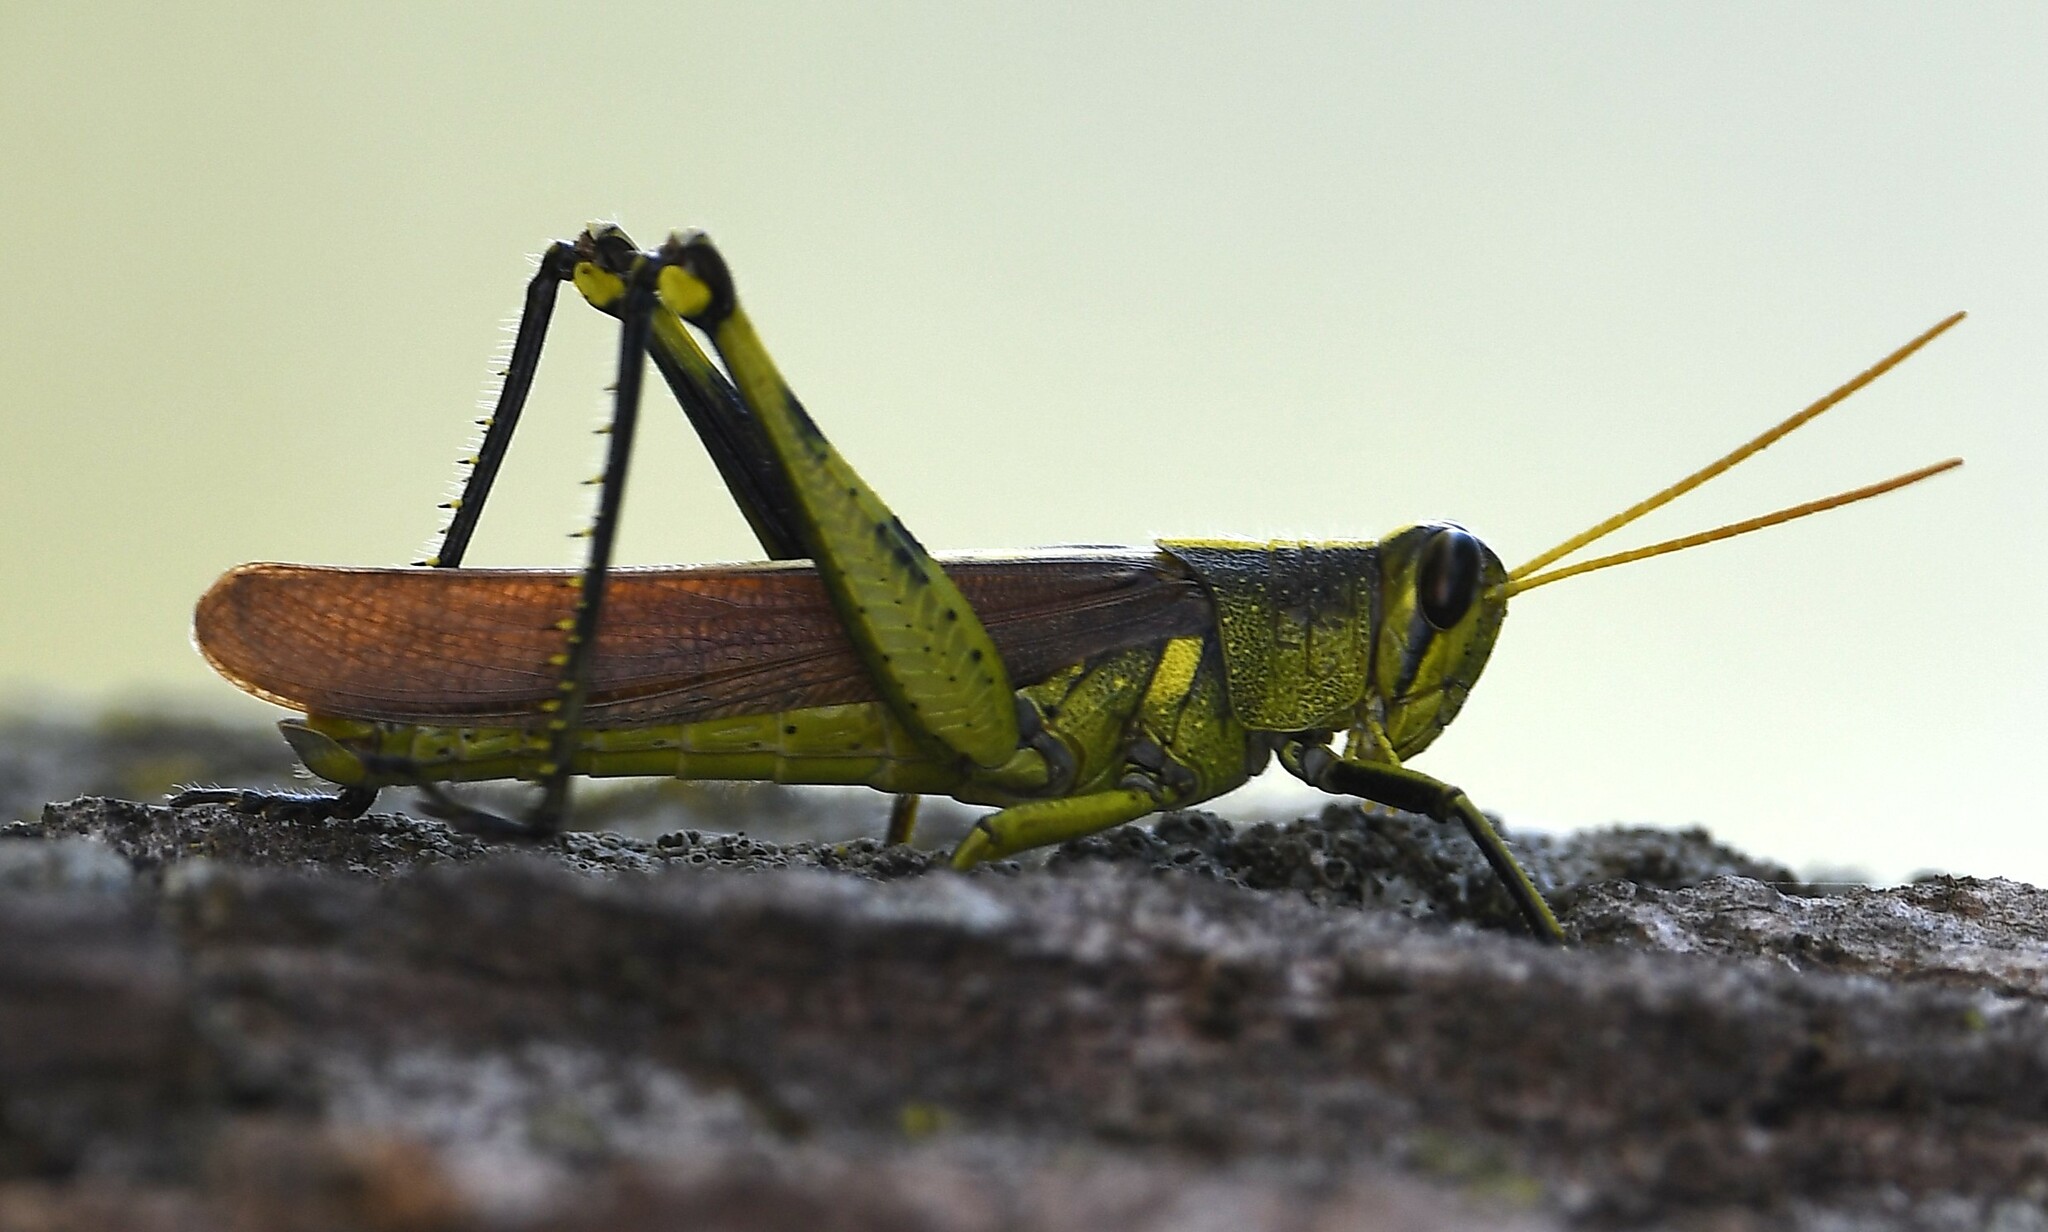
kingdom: Animalia
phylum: Arthropoda
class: Insecta
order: Orthoptera
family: Acrididae
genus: Schistocerca
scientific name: Schistocerca obscura
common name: Obscure bird grasshopper
